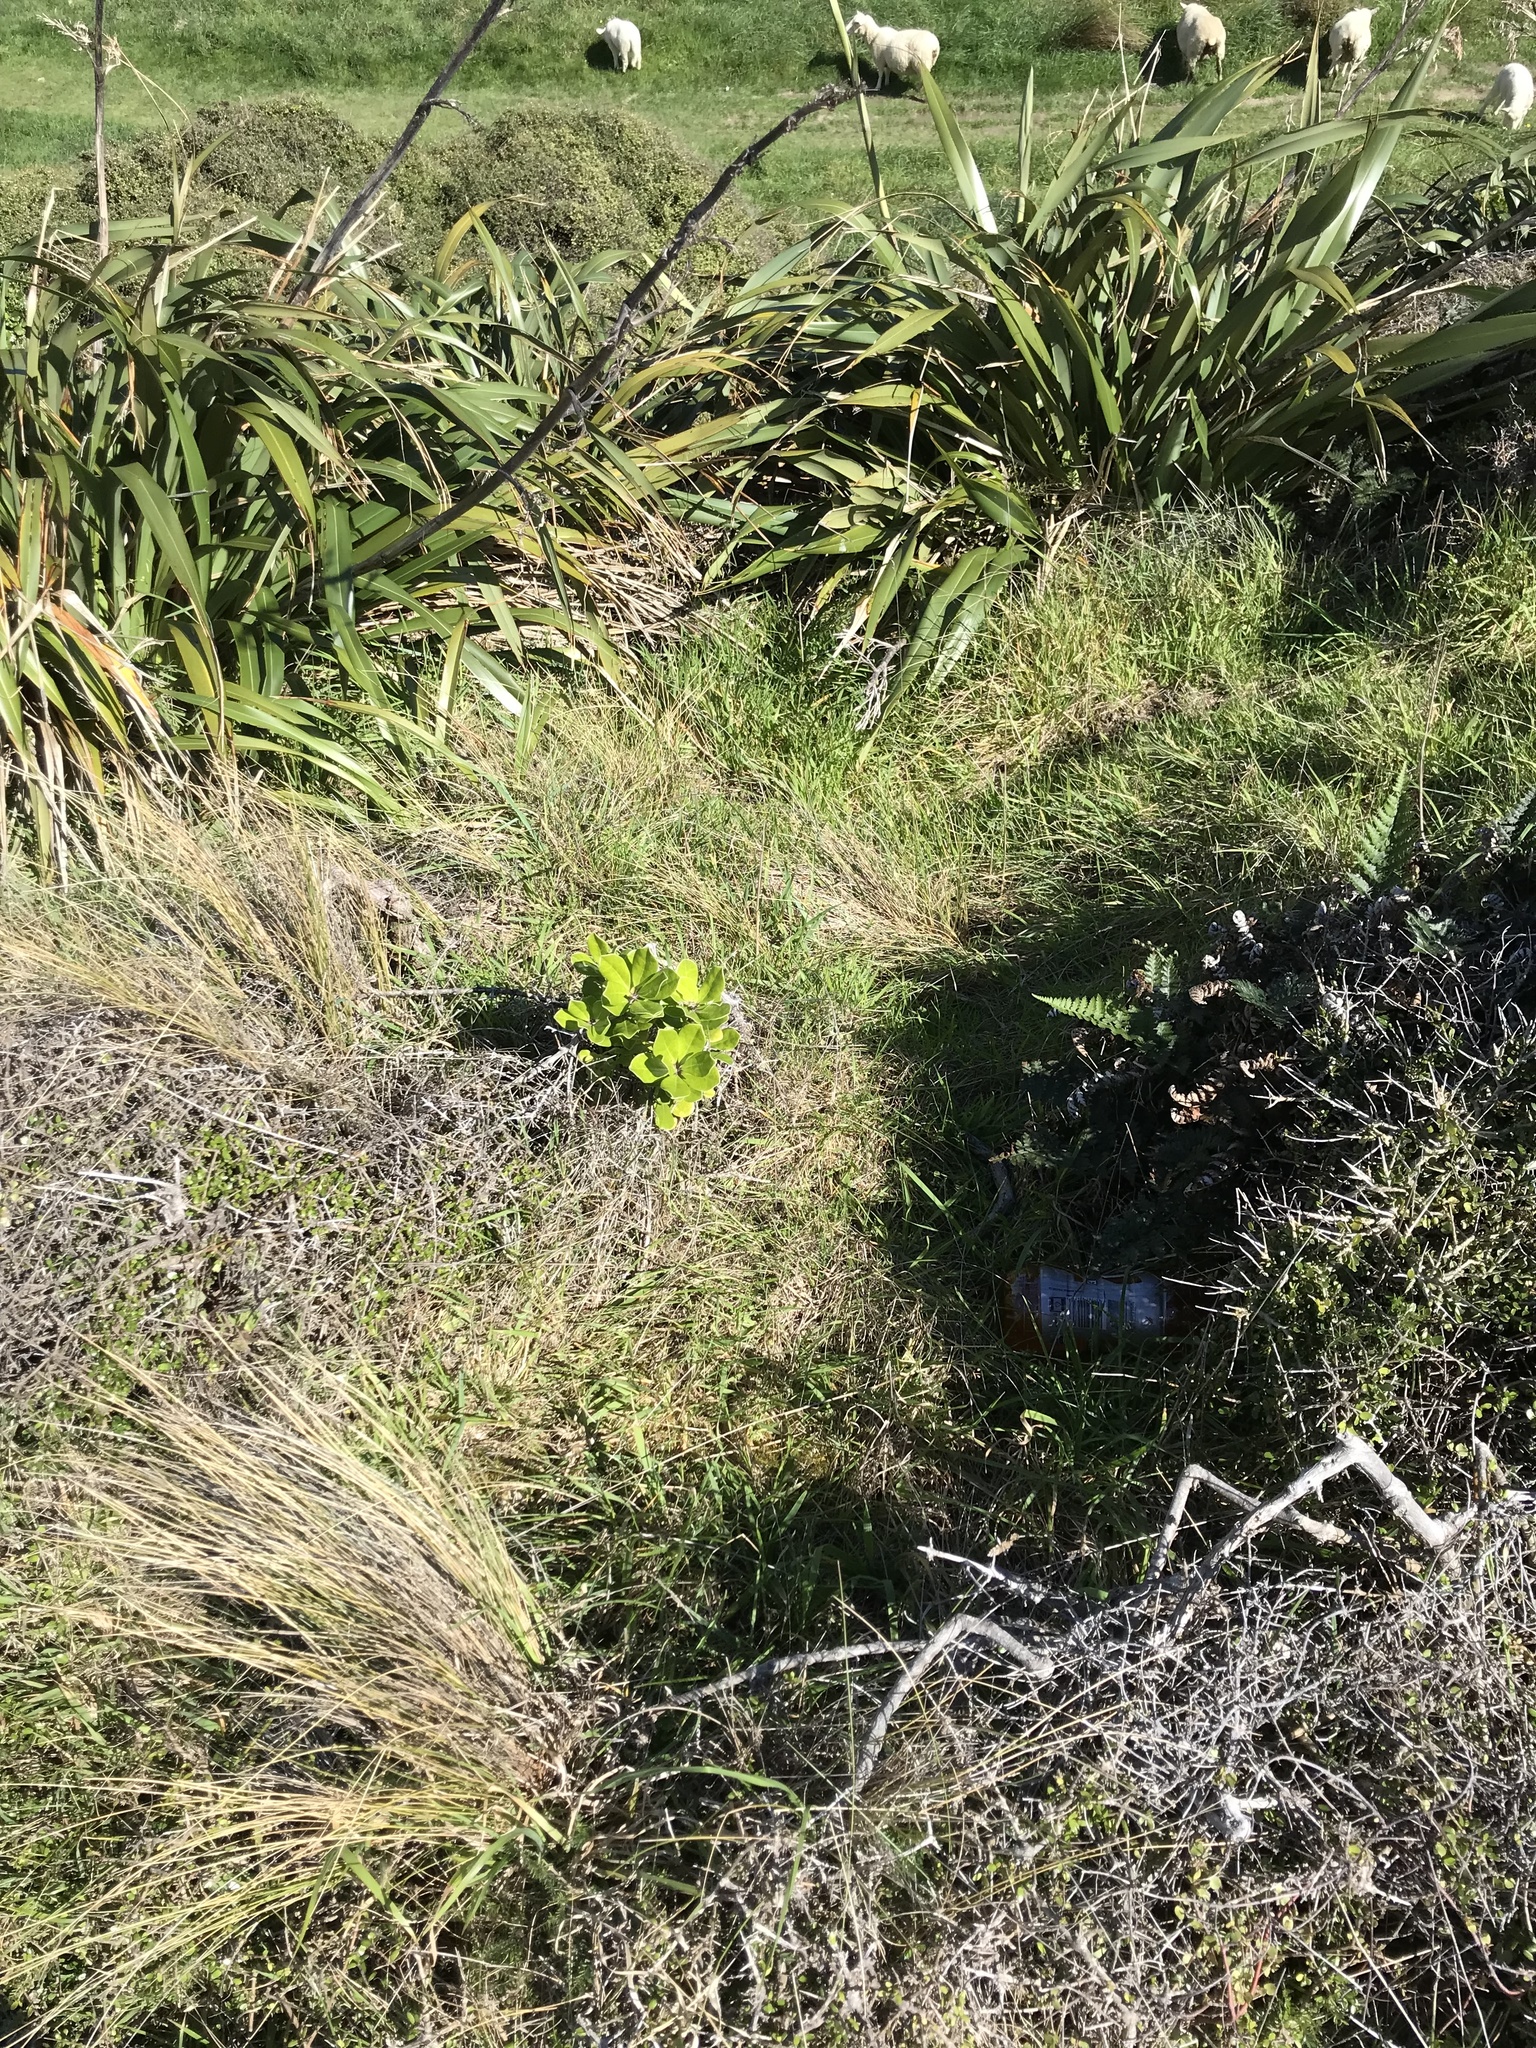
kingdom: Plantae
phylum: Tracheophyta
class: Magnoliopsida
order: Apiales
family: Pittosporaceae
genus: Pittosporum
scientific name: Pittosporum crassifolium
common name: Karo
